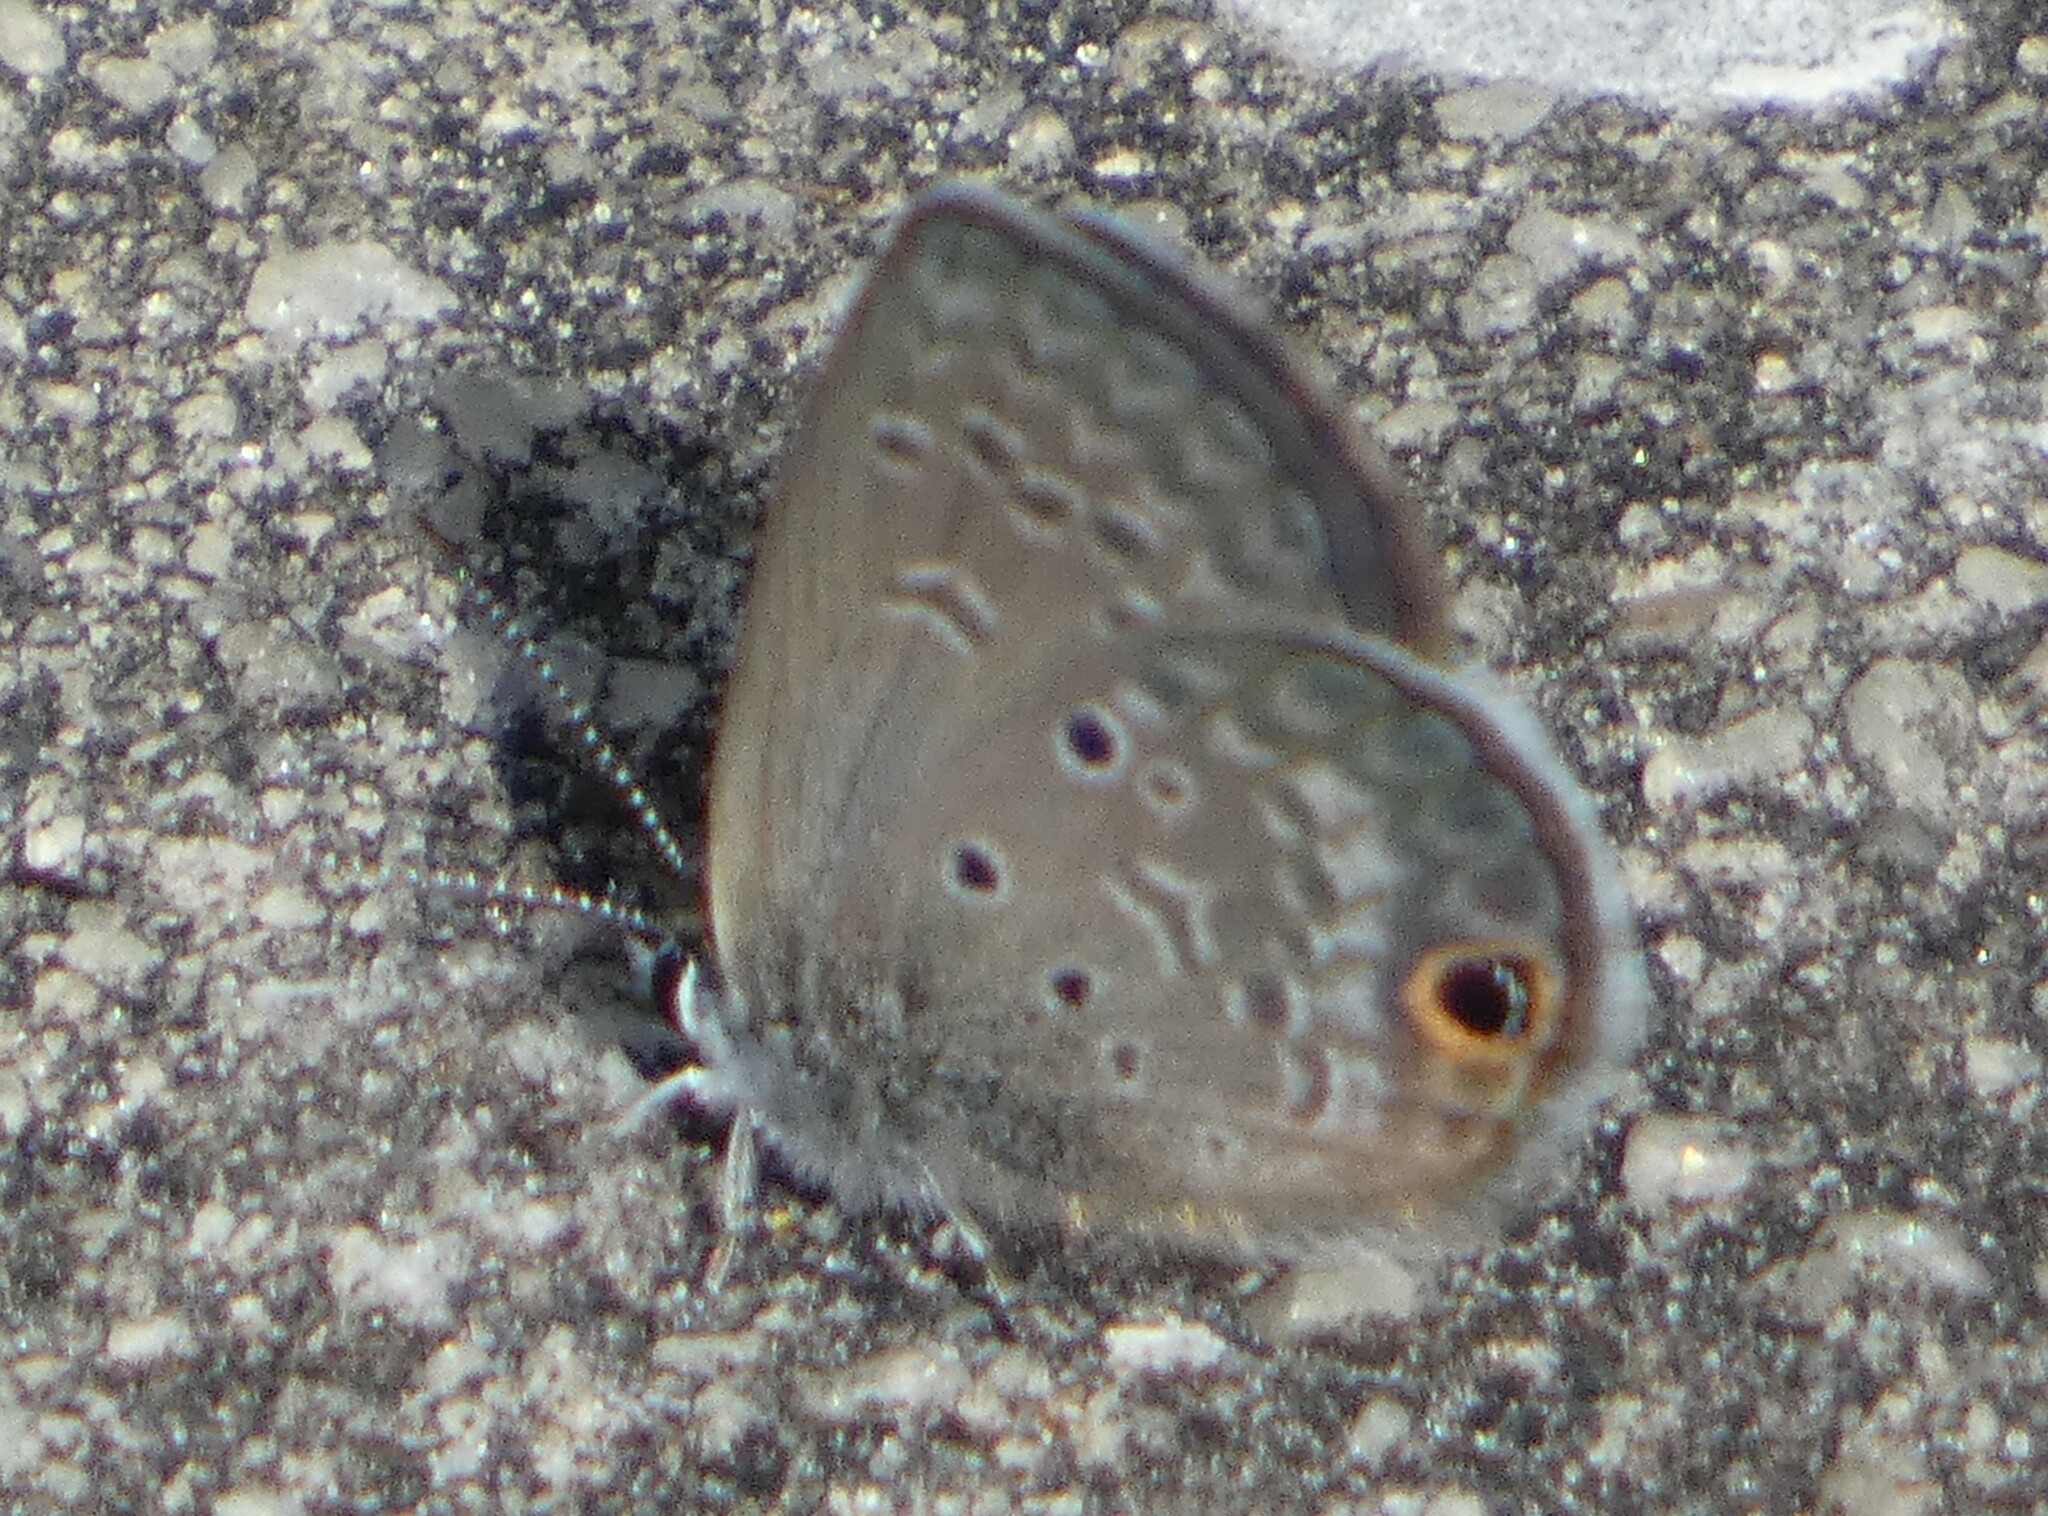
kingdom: Animalia
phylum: Arthropoda
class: Insecta
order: Lepidoptera
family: Lycaenidae
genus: Hemiargus
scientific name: Hemiargus ceraunus
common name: Ceraunus blue
